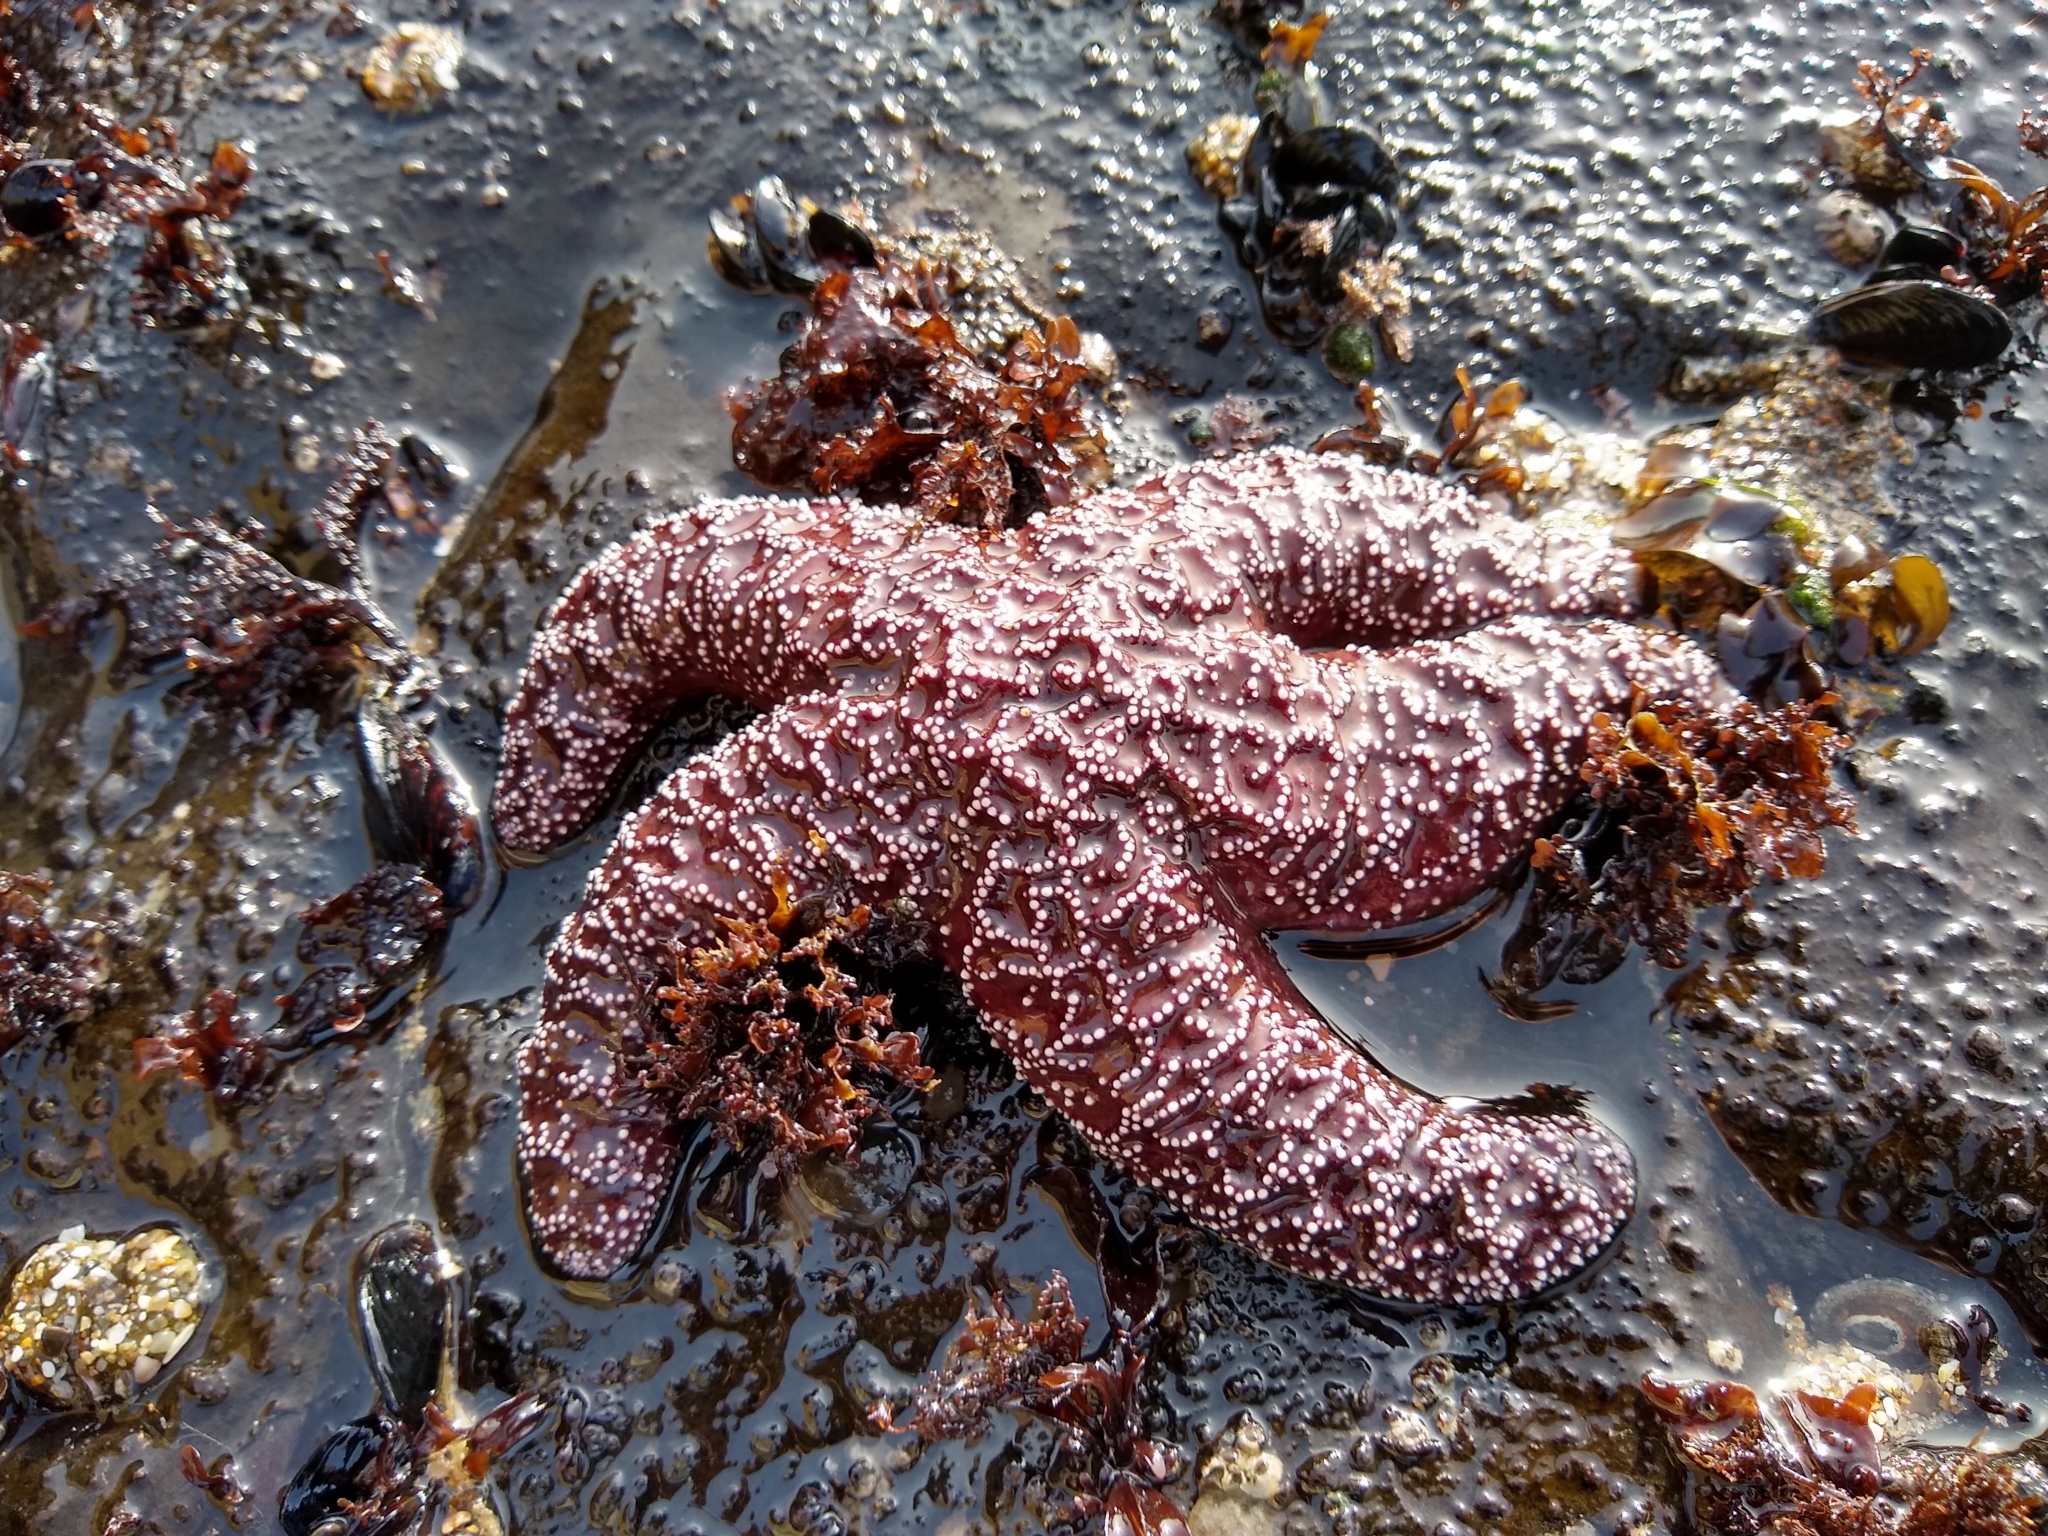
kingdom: Animalia
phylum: Echinodermata
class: Asteroidea
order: Forcipulatida
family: Asteriidae
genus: Pisaster
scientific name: Pisaster ochraceus
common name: Ochre stars
